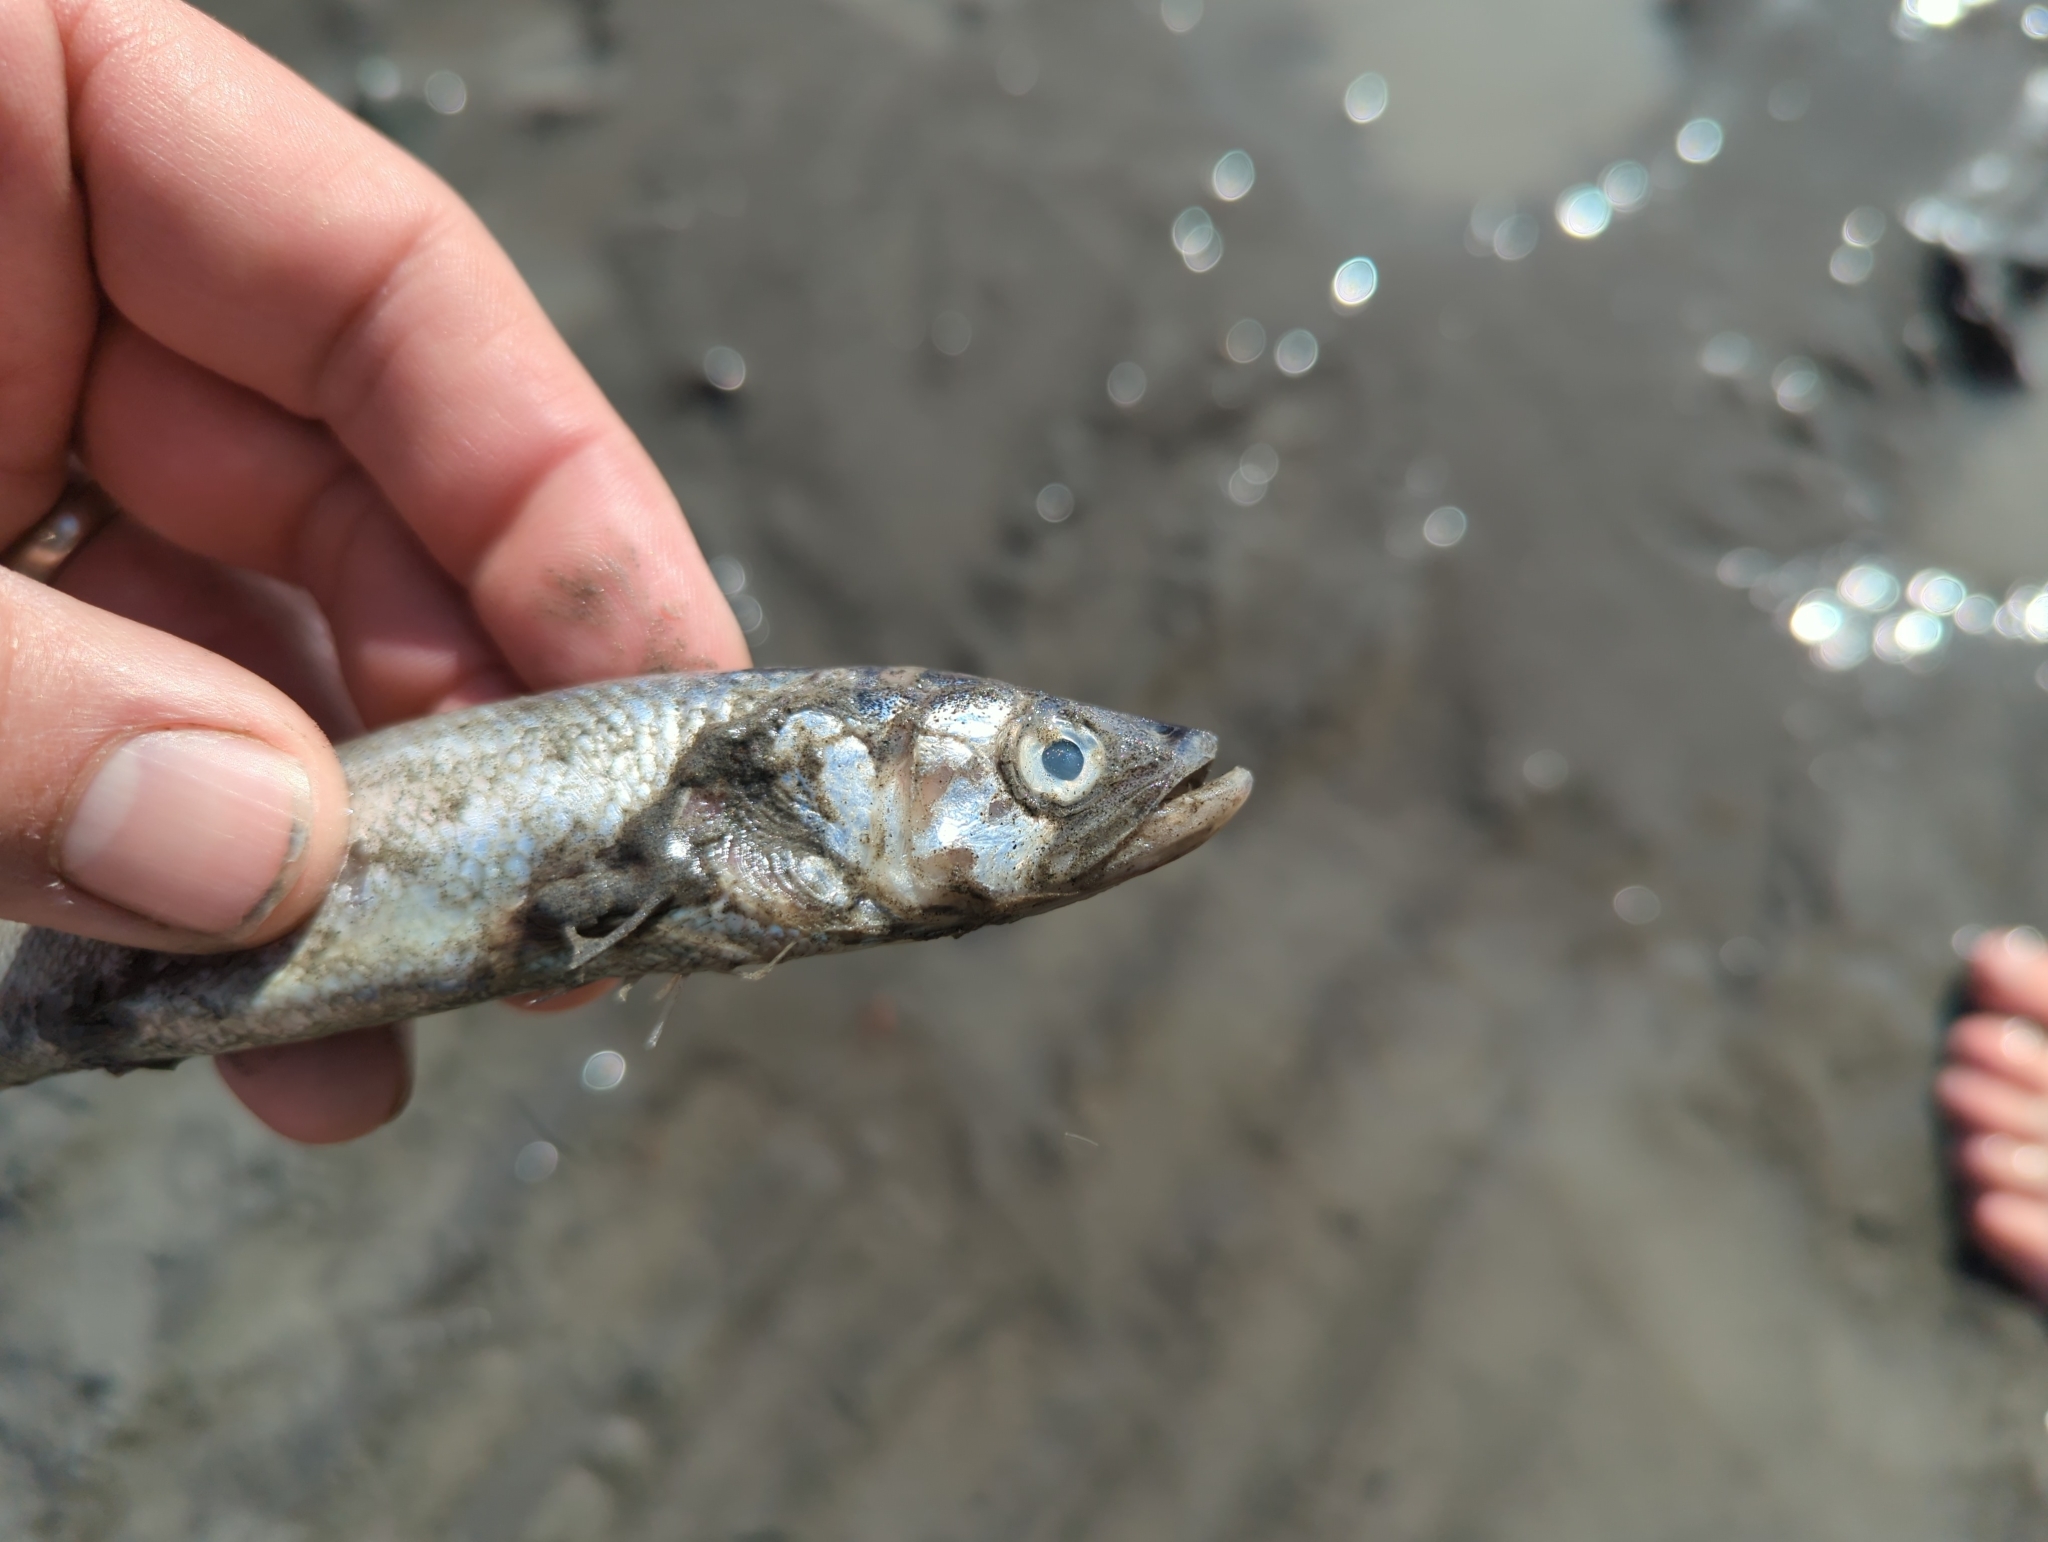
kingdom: Animalia
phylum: Chordata
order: Osmeriformes
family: Osmeridae
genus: Thaleichthys
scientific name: Thaleichthys pacificus
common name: Eulachon
